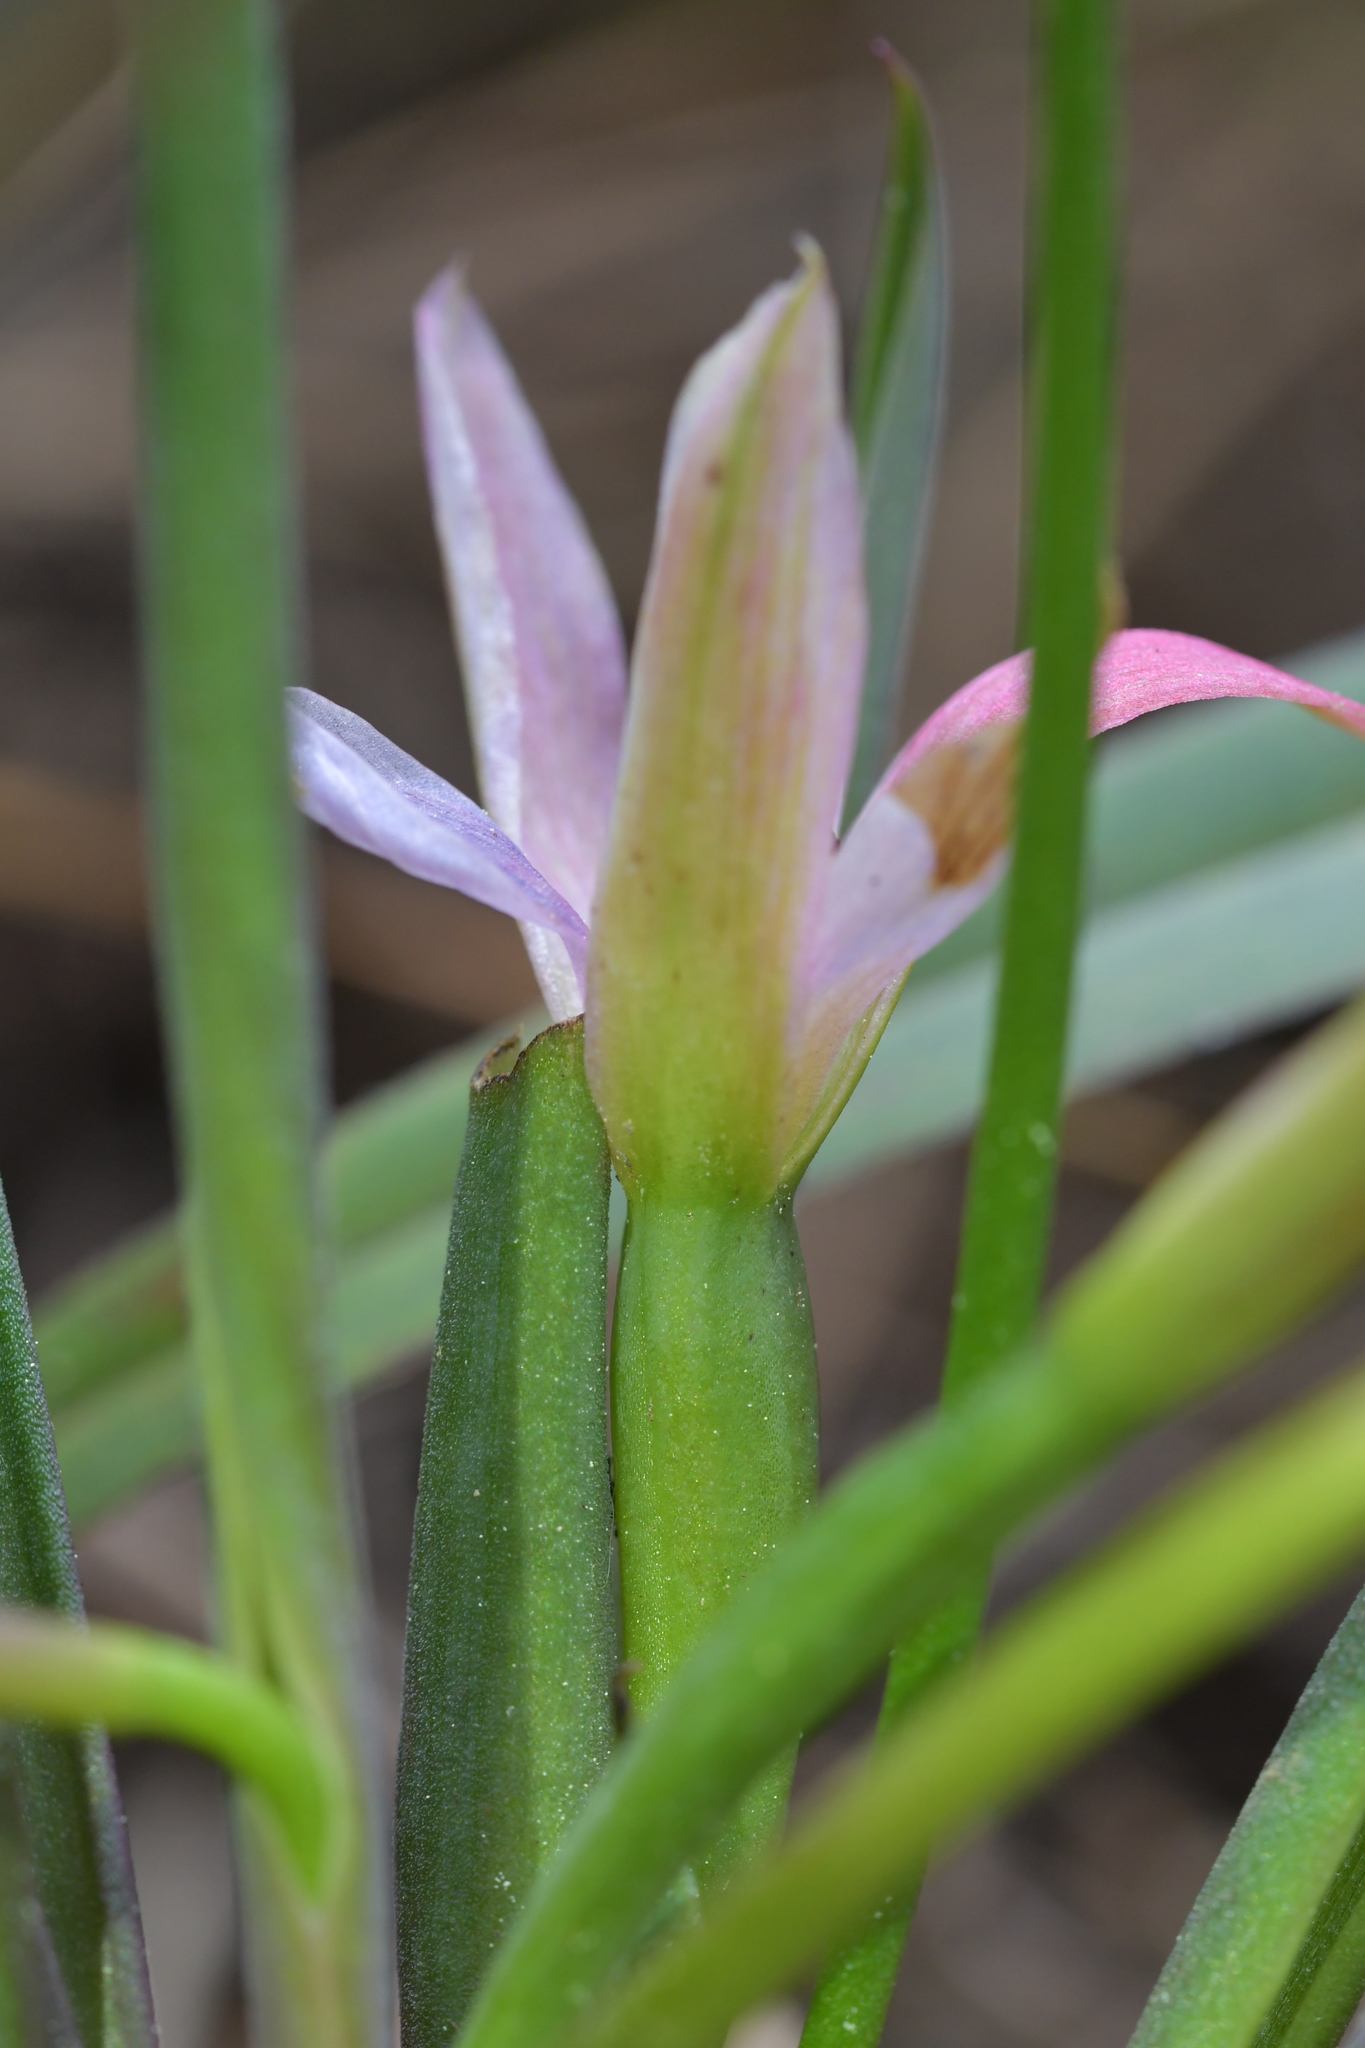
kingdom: Plantae
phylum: Tracheophyta
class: Liliopsida
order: Asparagales
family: Orchidaceae
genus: Thelymitra
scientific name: Thelymitra nervosa
